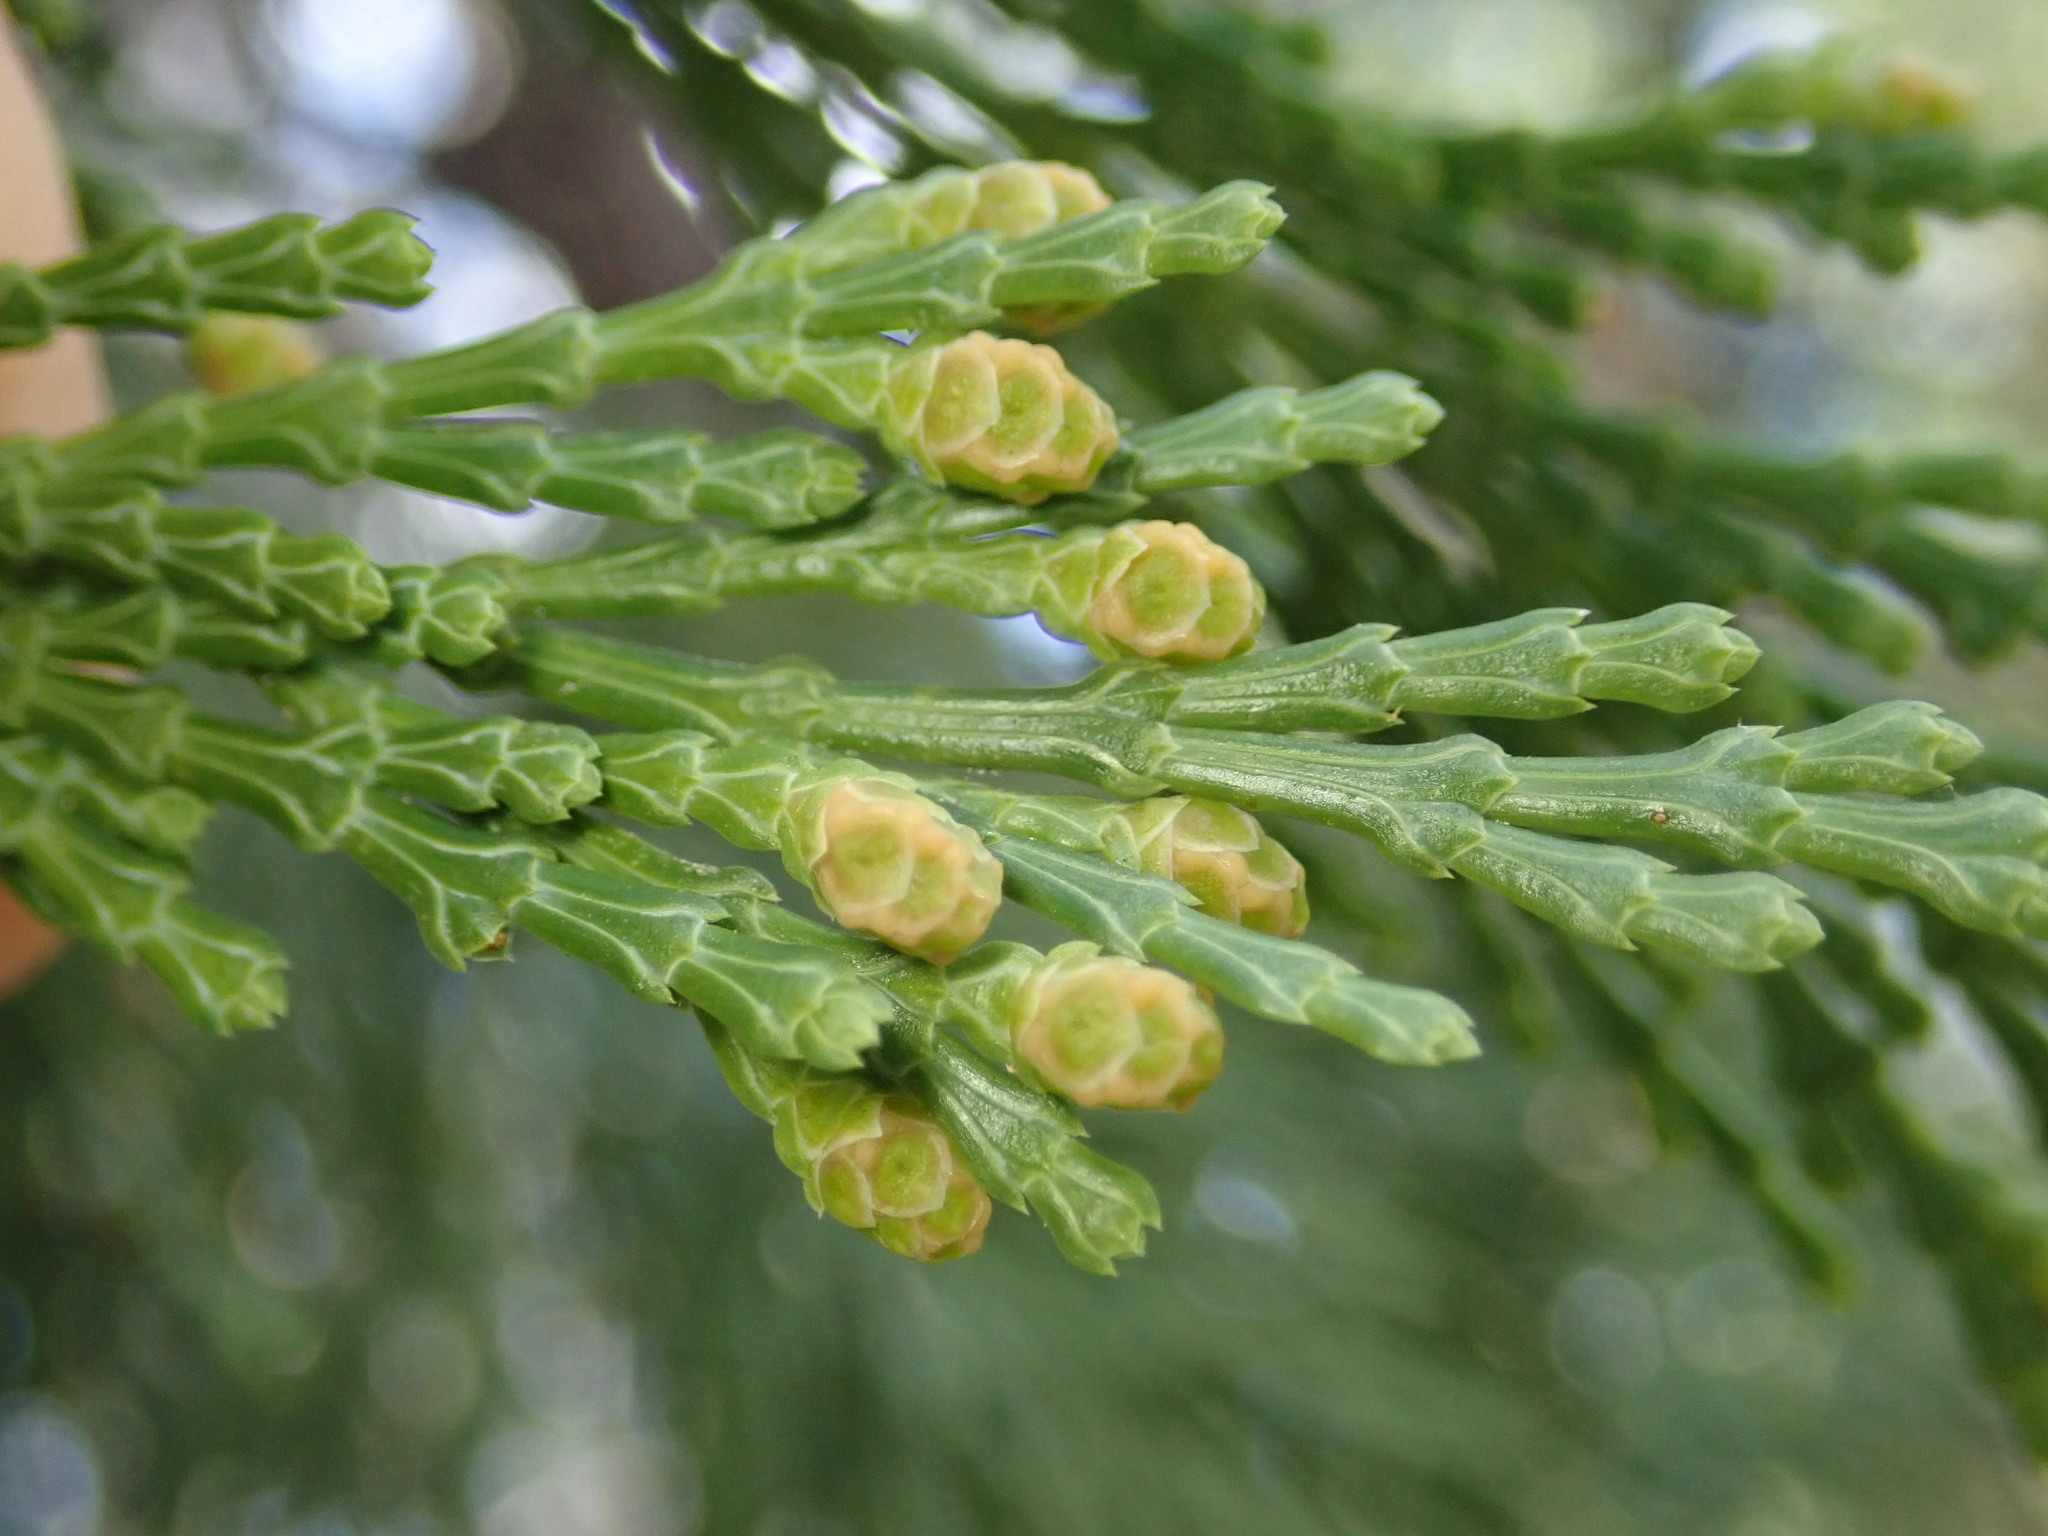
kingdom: Plantae
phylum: Tracheophyta
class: Pinopsida
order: Pinales
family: Cupressaceae
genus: Calocedrus
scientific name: Calocedrus decurrens
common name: Californian incense-cedar
